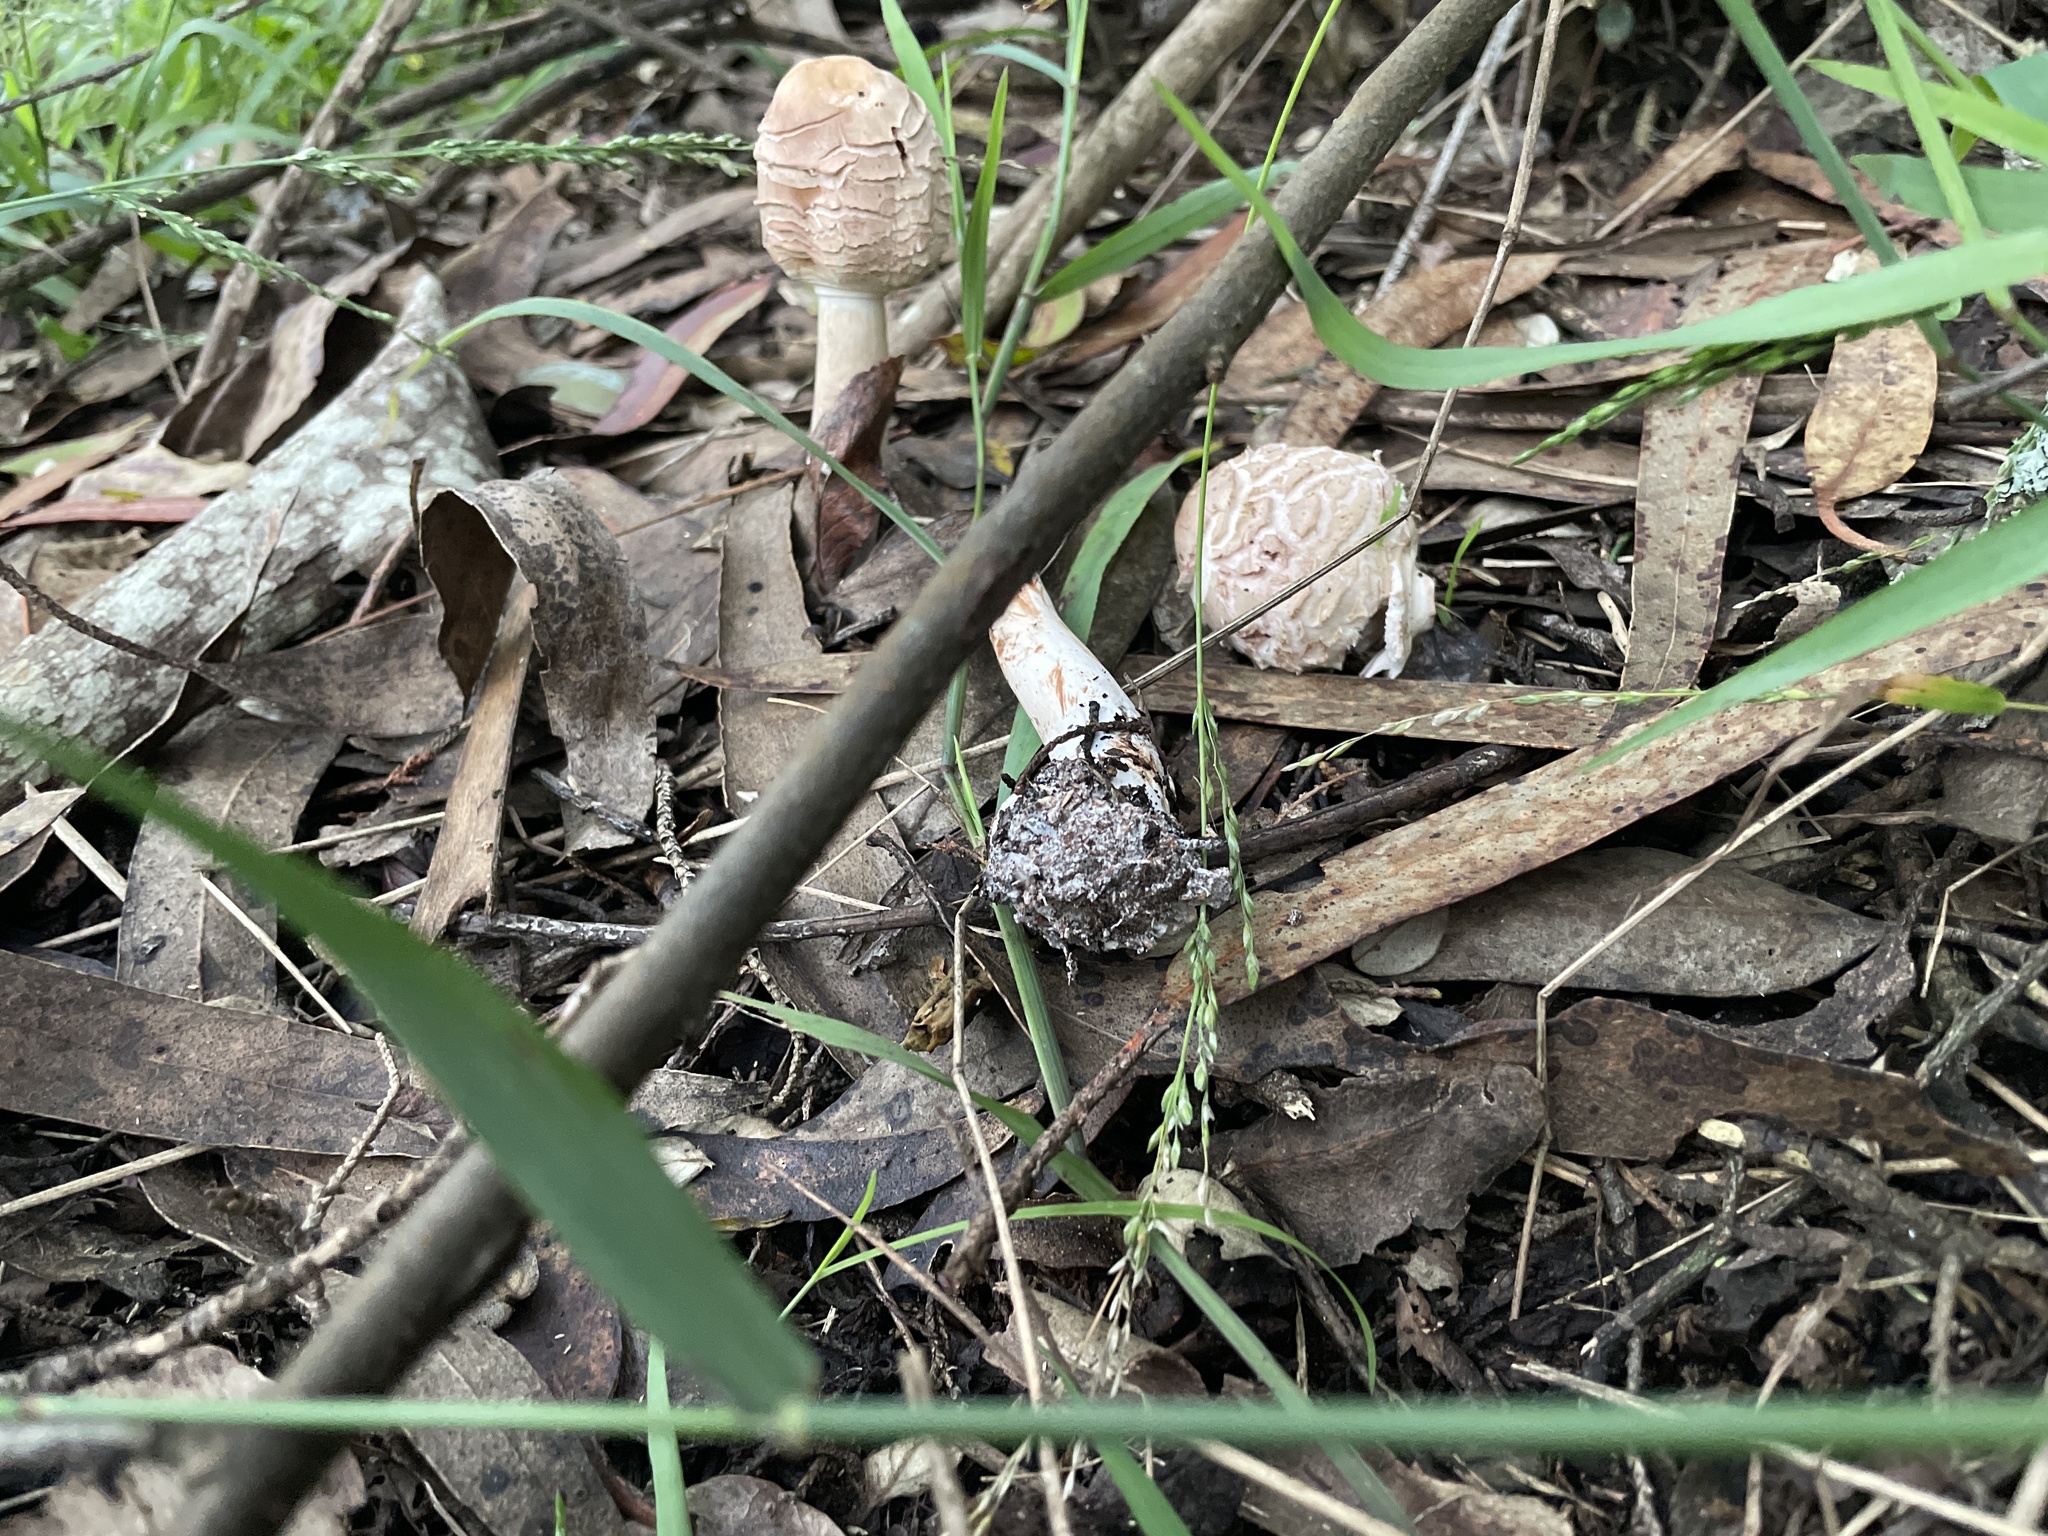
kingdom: Fungi
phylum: Basidiomycota
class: Agaricomycetes
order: Agaricales
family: Agaricaceae
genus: Chlorophyllum
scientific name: Chlorophyllum brunneum
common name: Brown parasol
